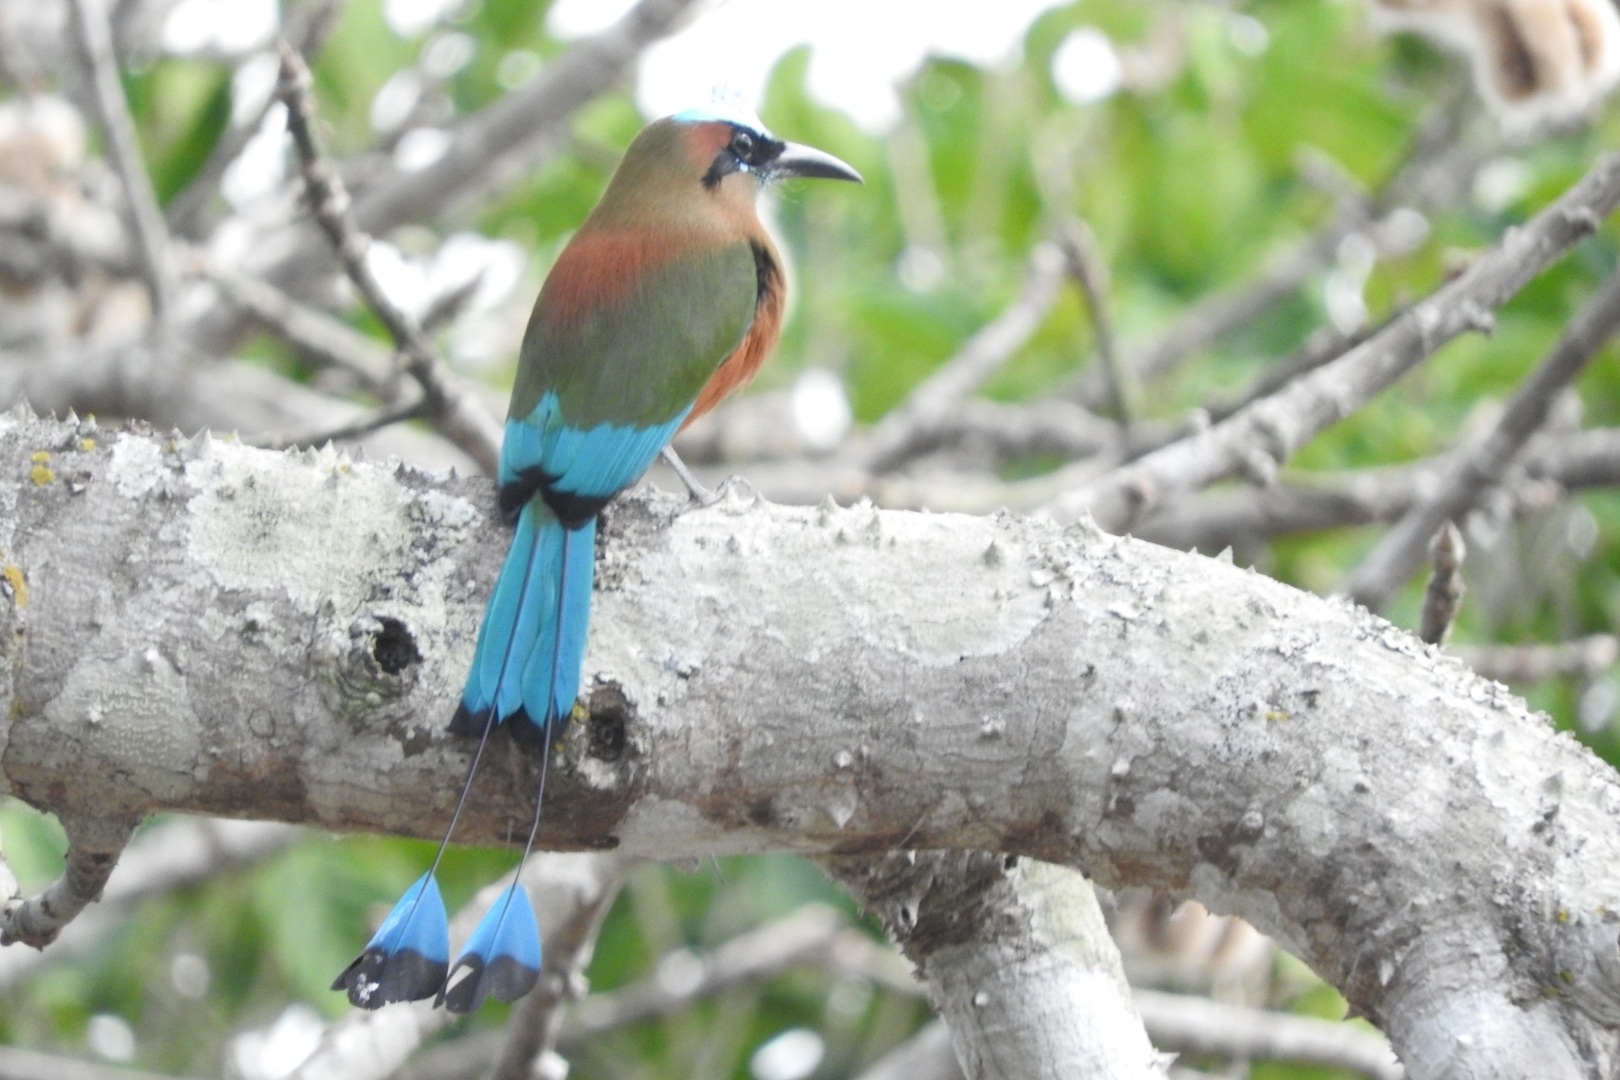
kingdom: Animalia
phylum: Chordata
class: Aves
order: Coraciiformes
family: Momotidae
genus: Eumomota
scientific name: Eumomota superciliosa
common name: Turquoise-browed motmot
